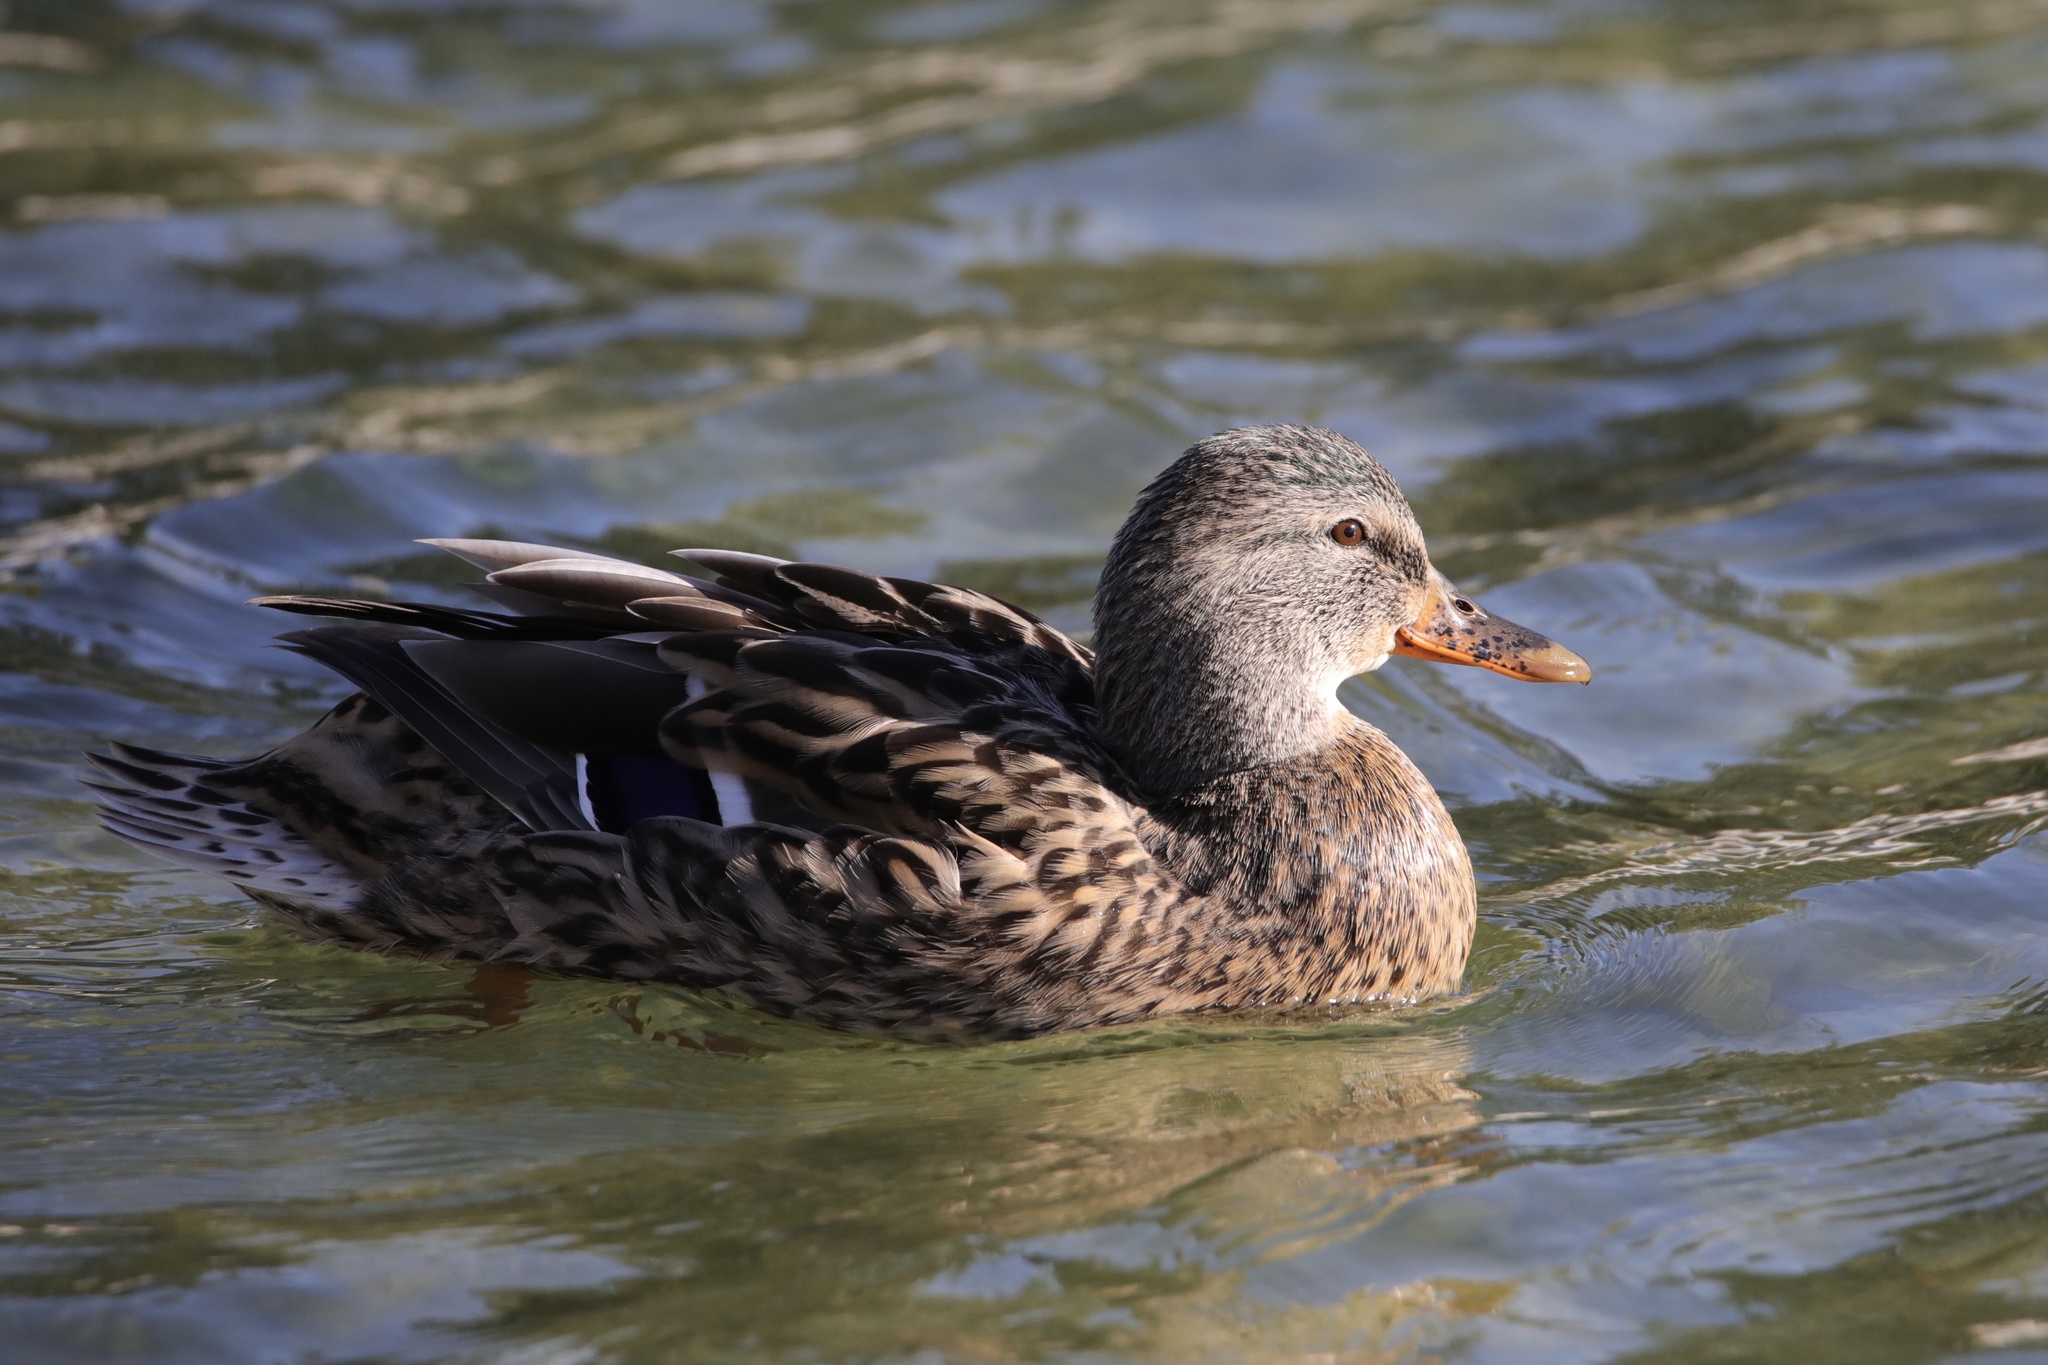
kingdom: Animalia
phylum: Chordata
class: Aves
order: Anseriformes
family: Anatidae
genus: Anas
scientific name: Anas platyrhynchos
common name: Mallard
